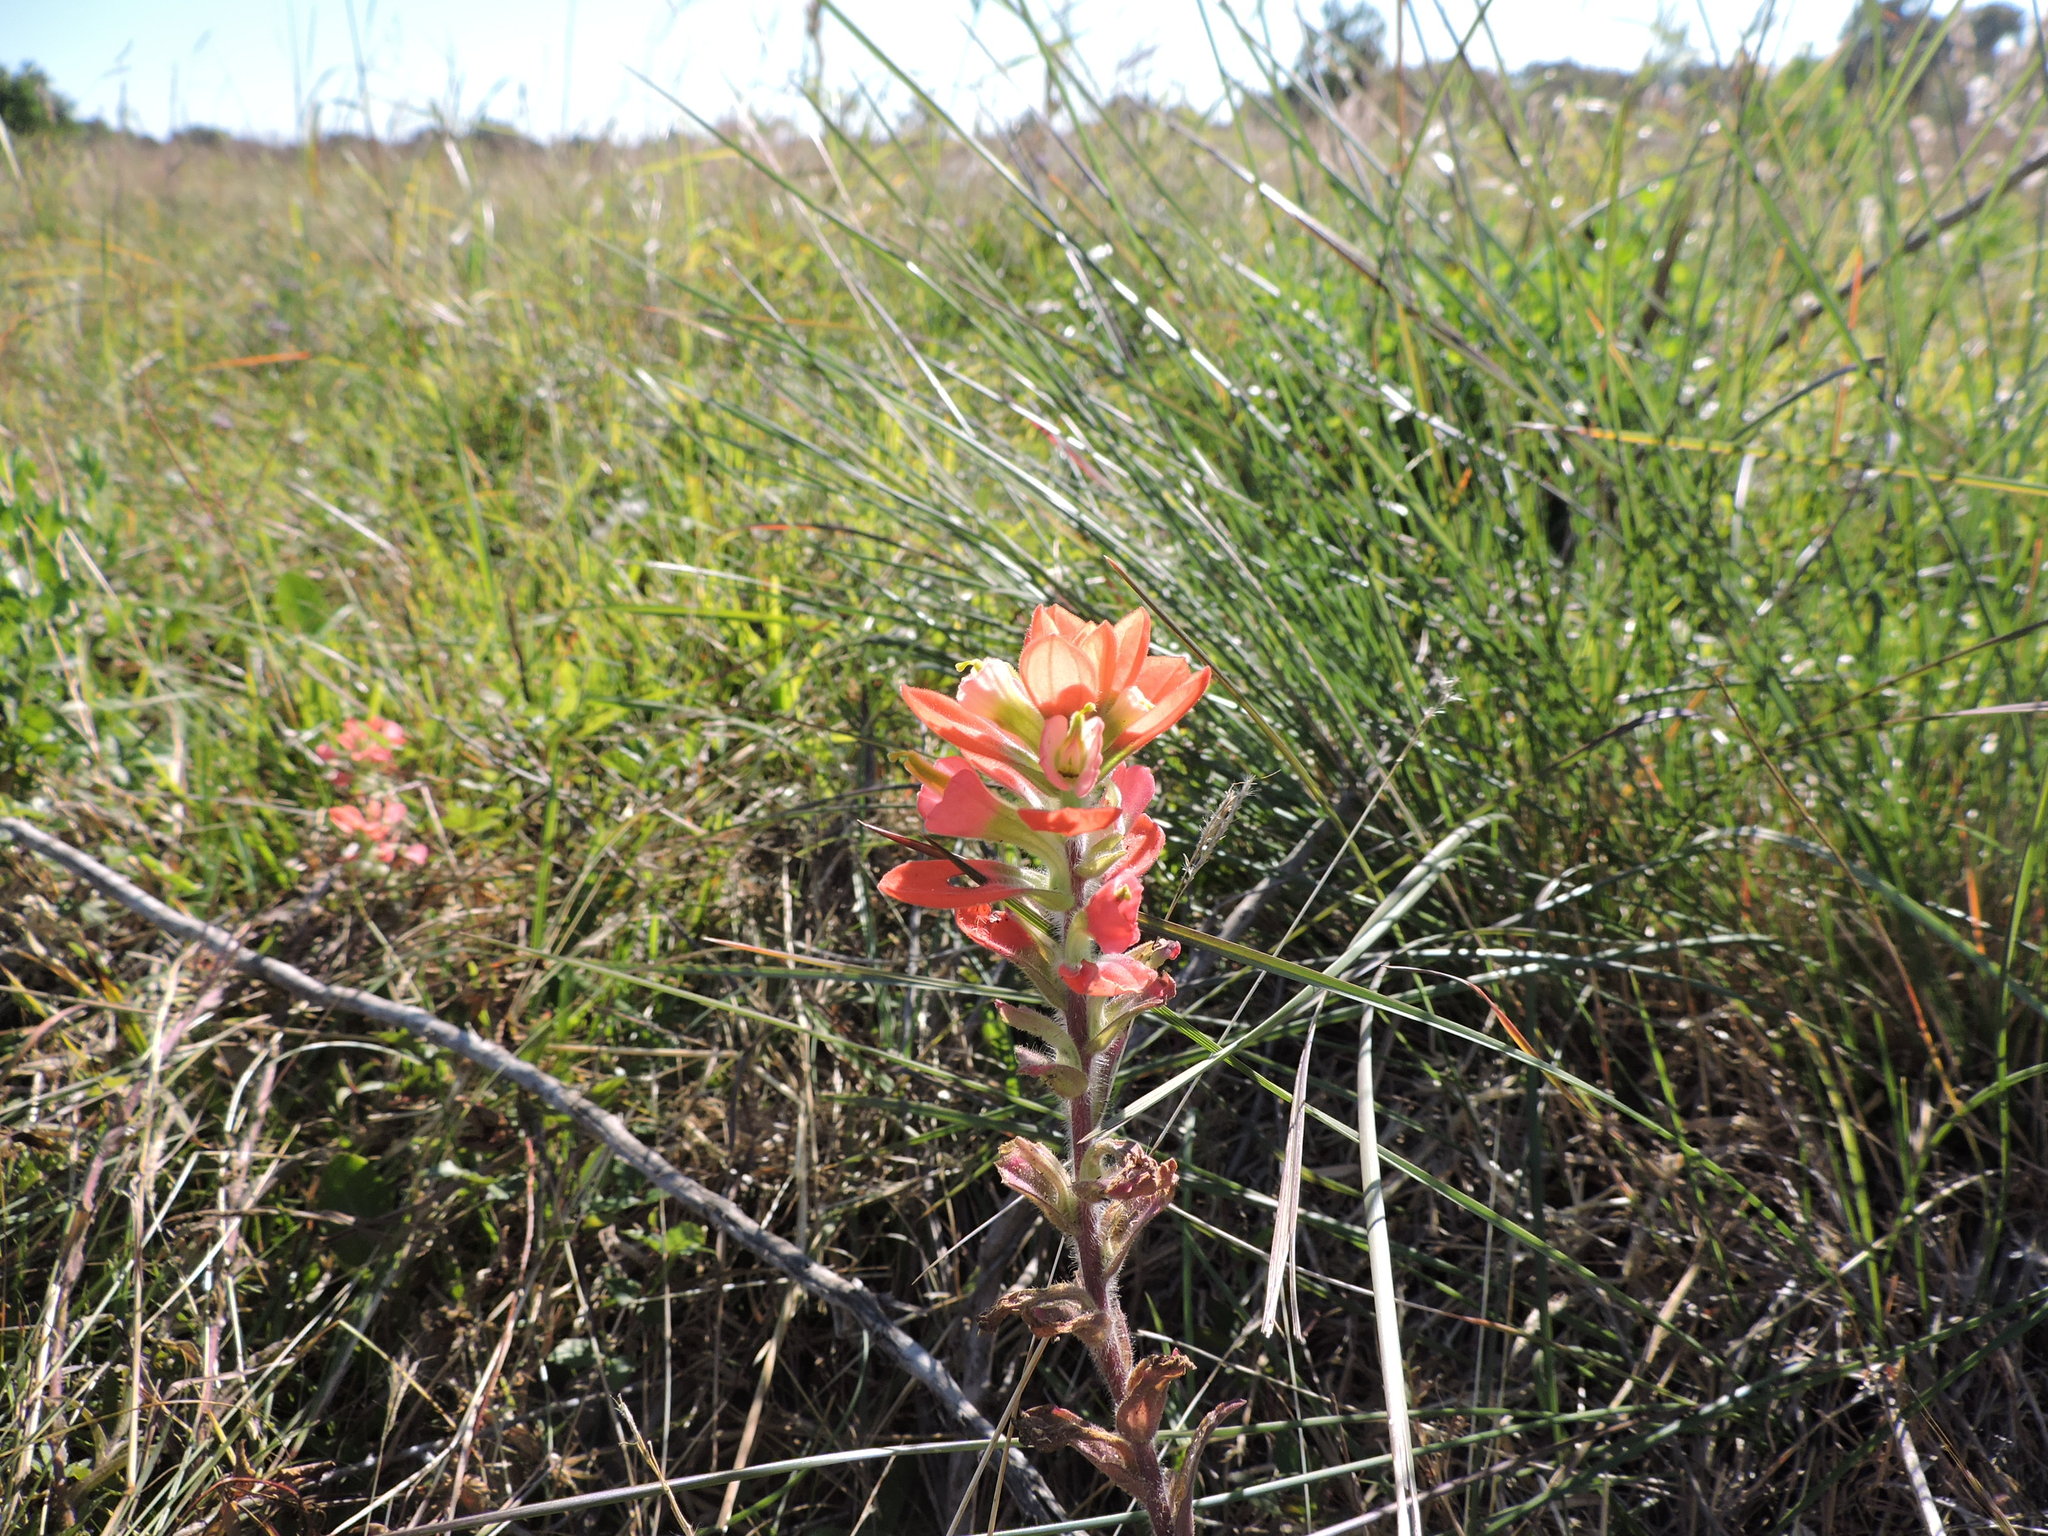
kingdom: Plantae
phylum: Tracheophyta
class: Magnoliopsida
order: Lamiales
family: Orobanchaceae
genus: Castilleja
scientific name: Castilleja indivisa
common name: Texas paintbrush
